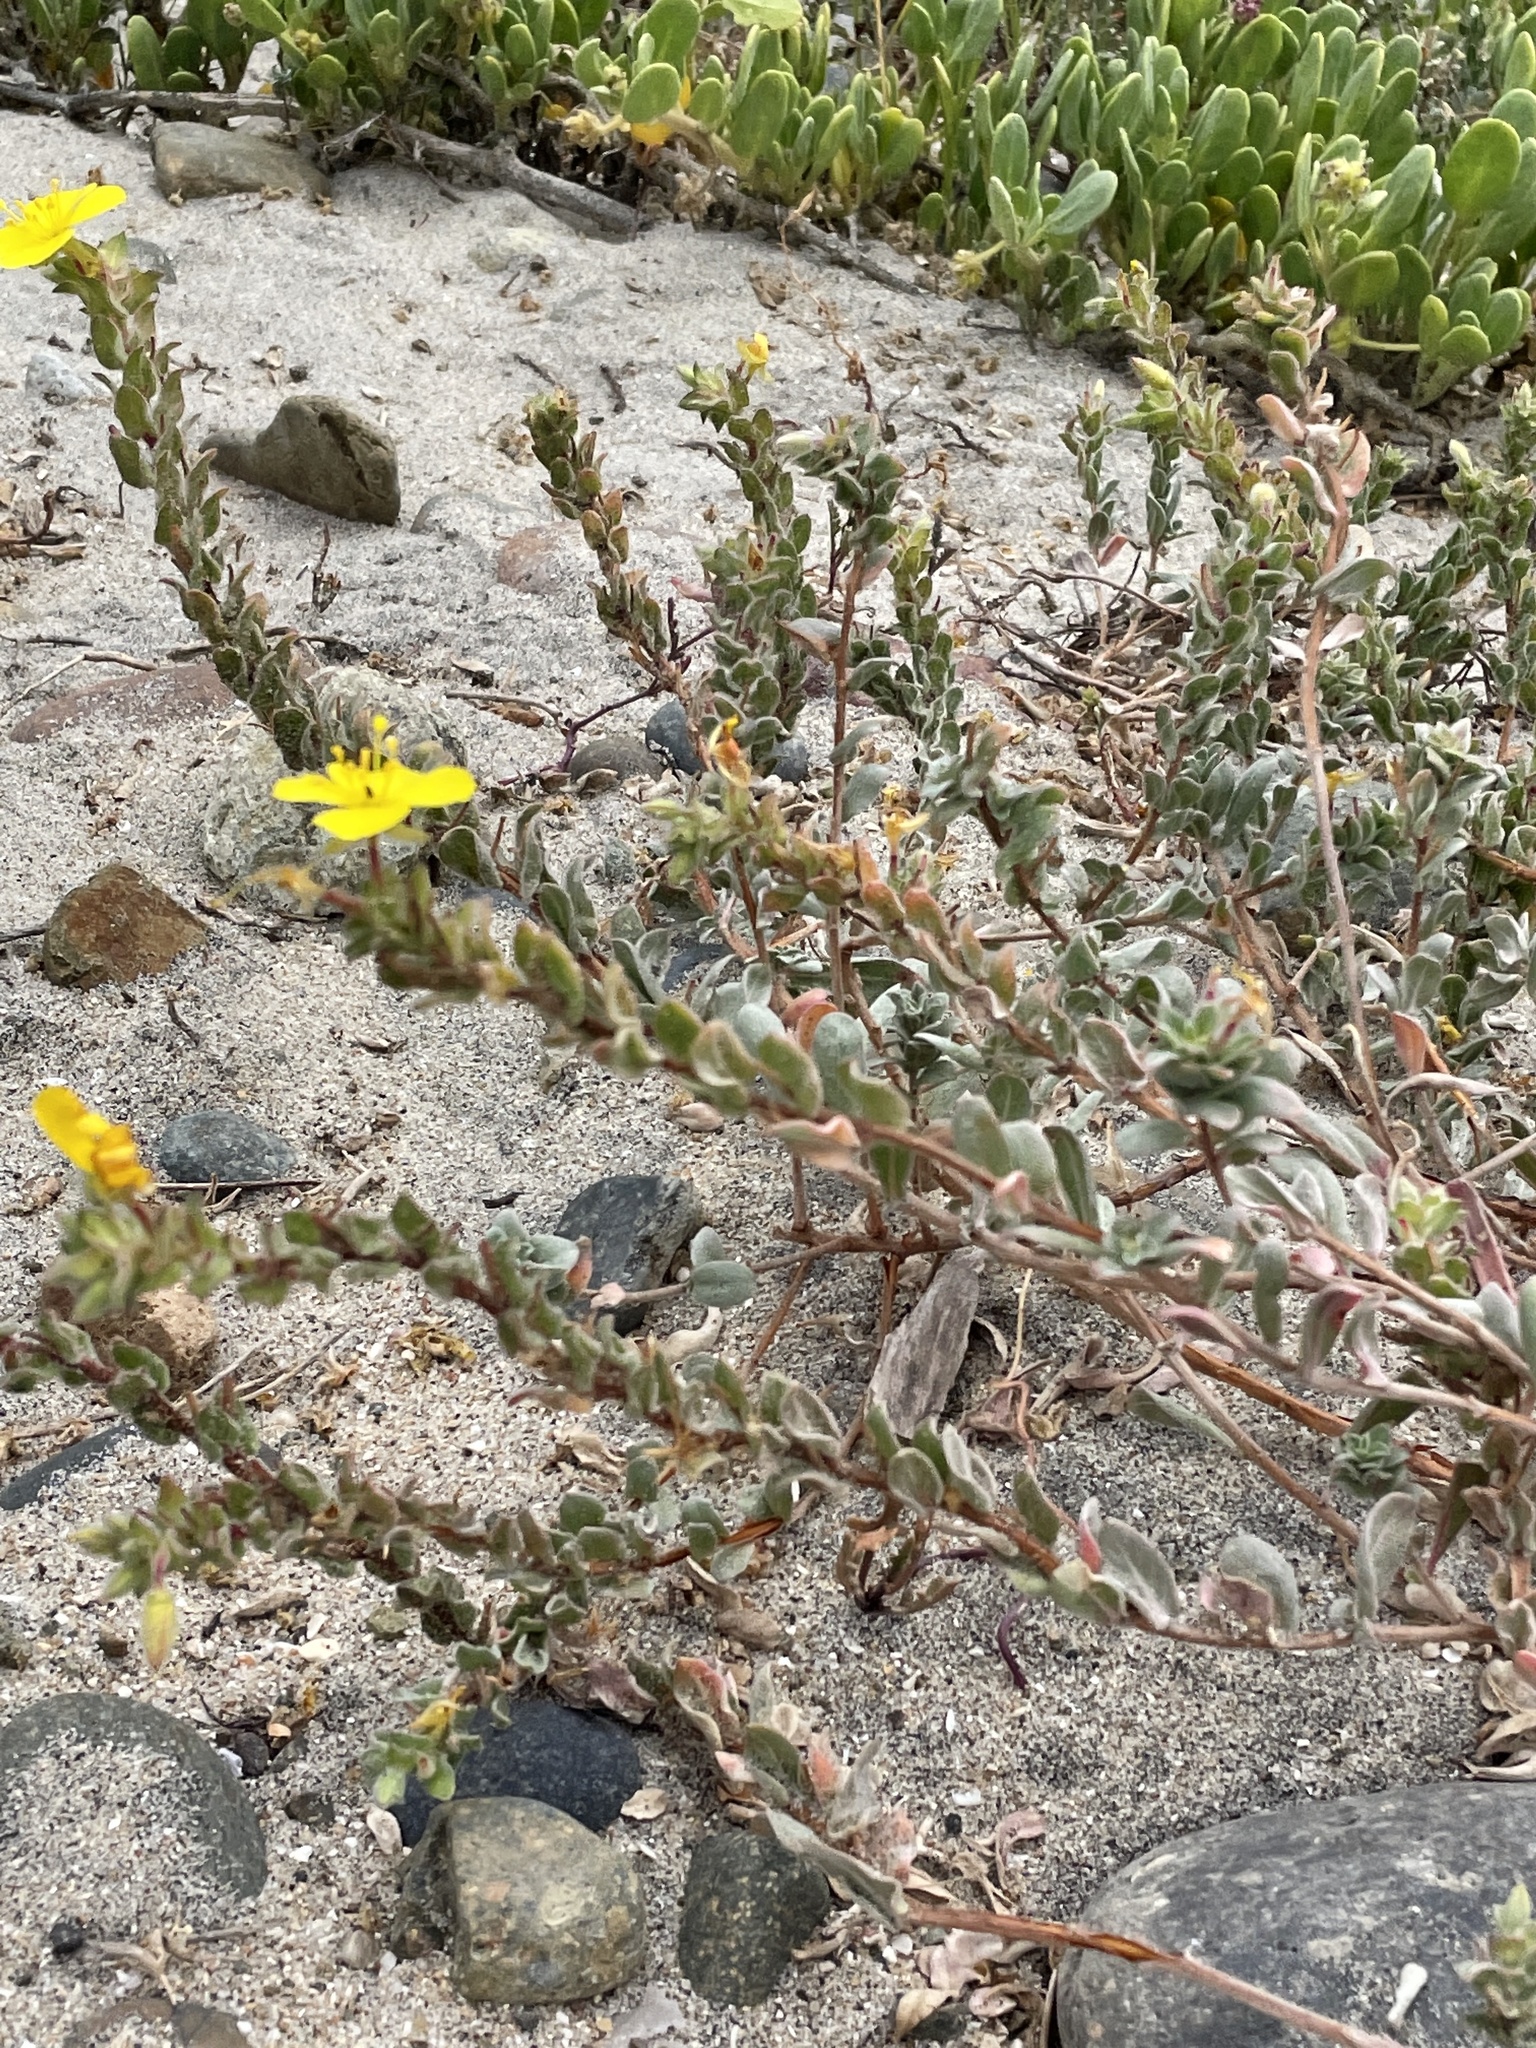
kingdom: Plantae
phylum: Tracheophyta
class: Magnoliopsida
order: Myrtales
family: Onagraceae
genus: Camissoniopsis
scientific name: Camissoniopsis cheiranthifolia
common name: Beach suncup
